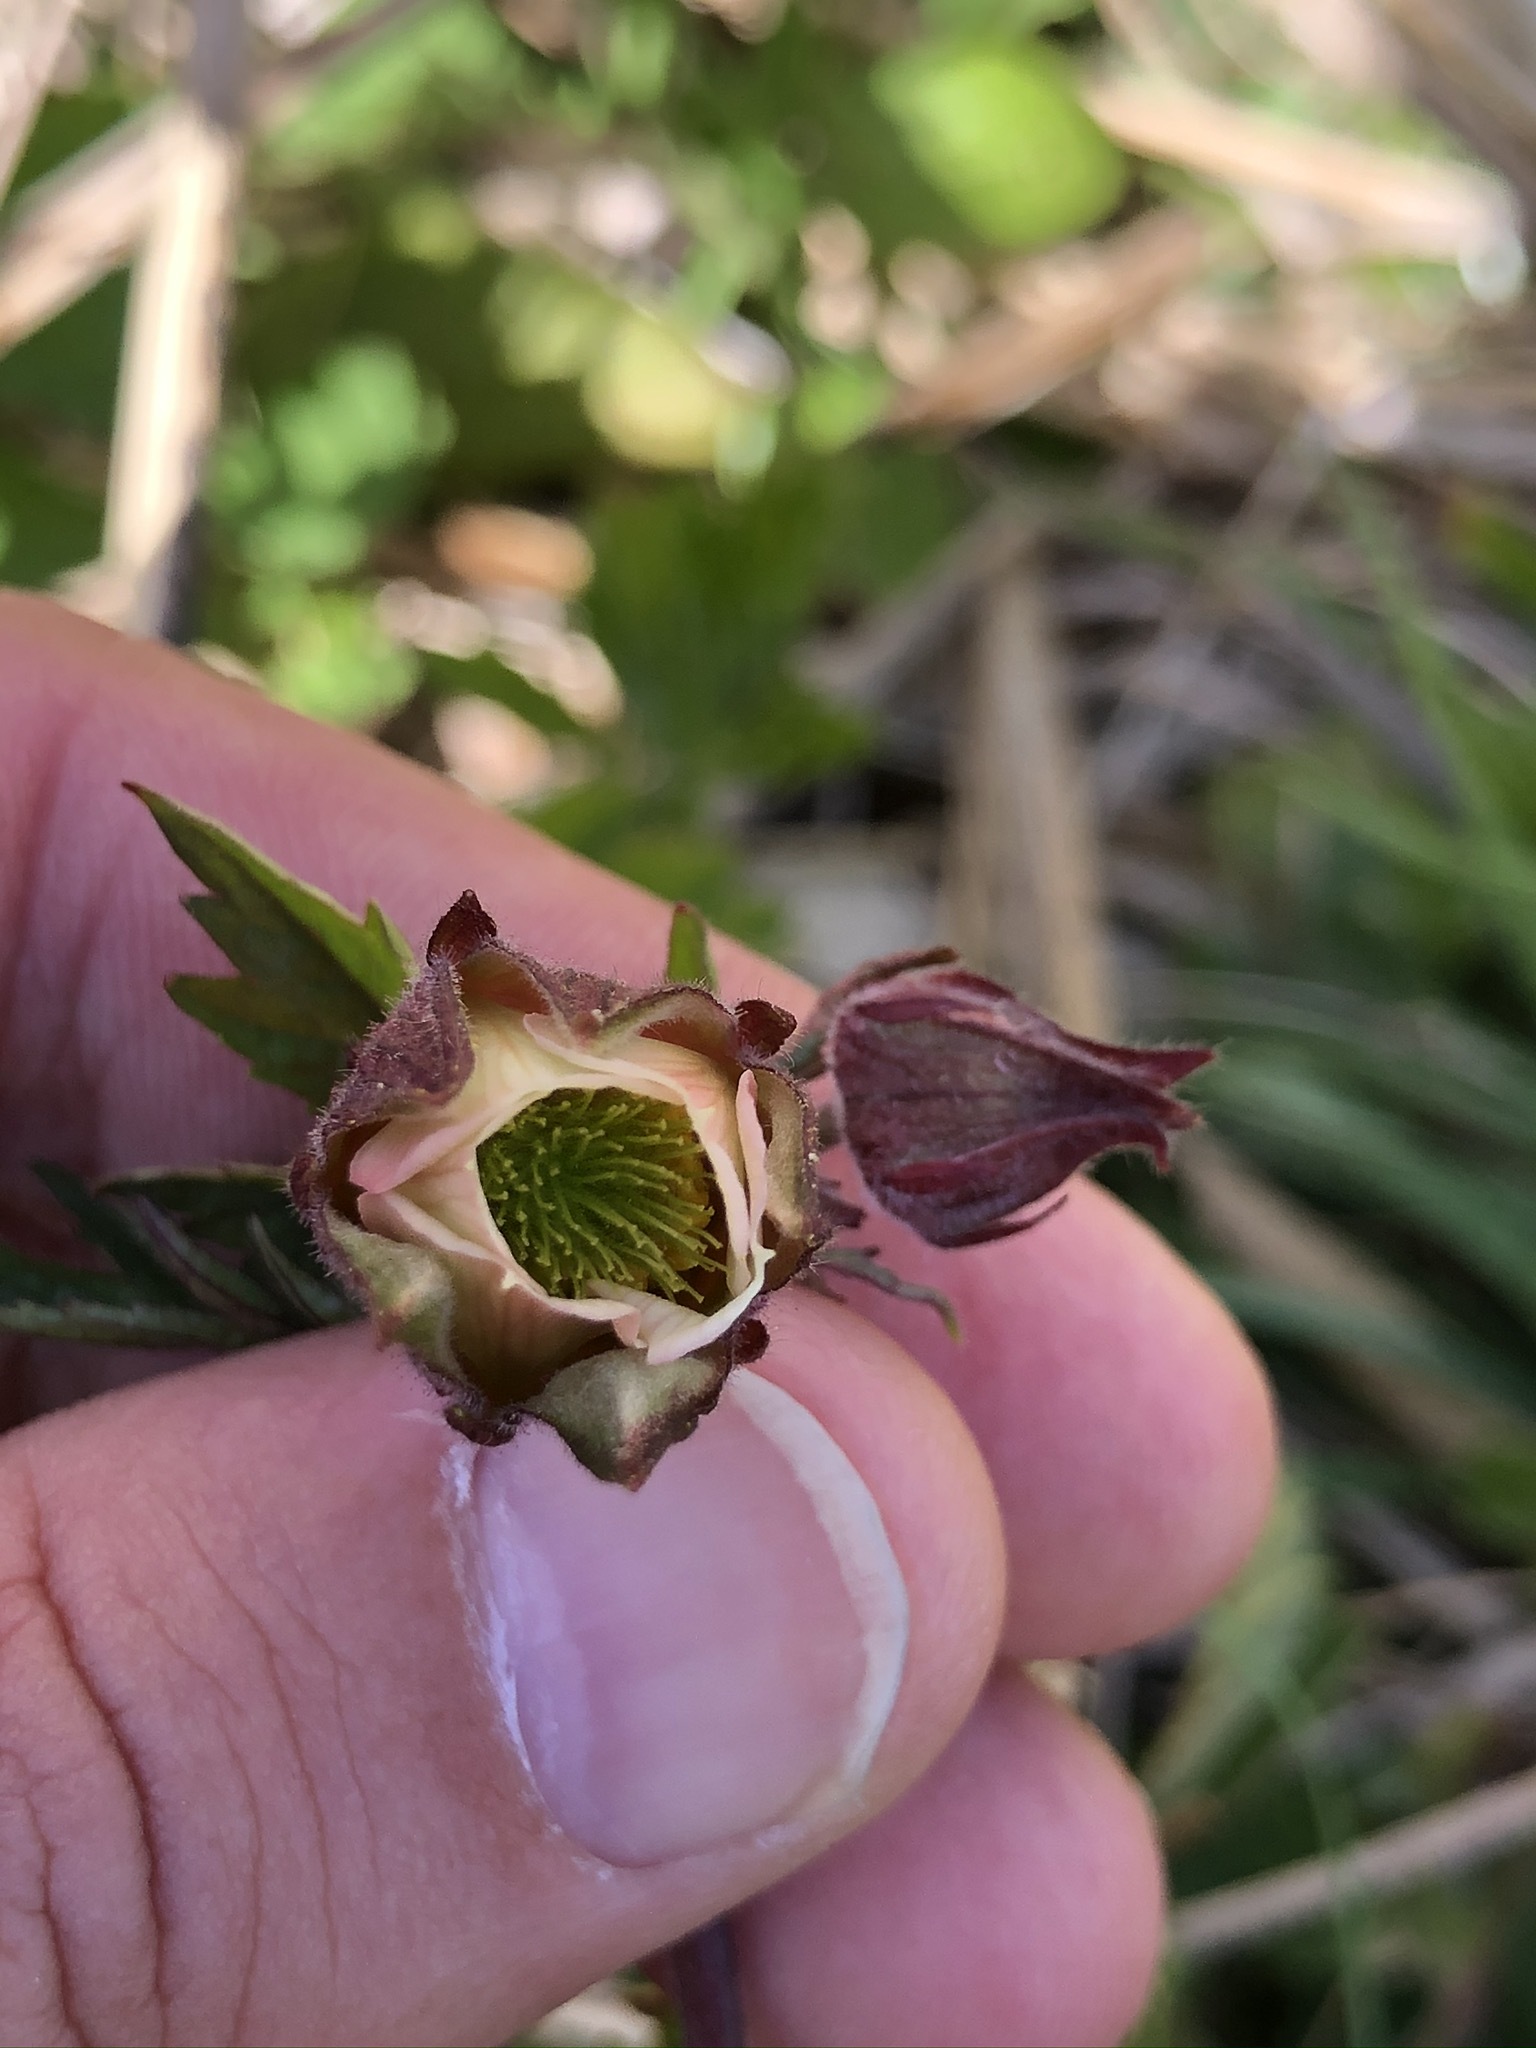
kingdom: Plantae
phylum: Tracheophyta
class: Magnoliopsida
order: Rosales
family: Rosaceae
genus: Geum
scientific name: Geum rivale
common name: Water avens
